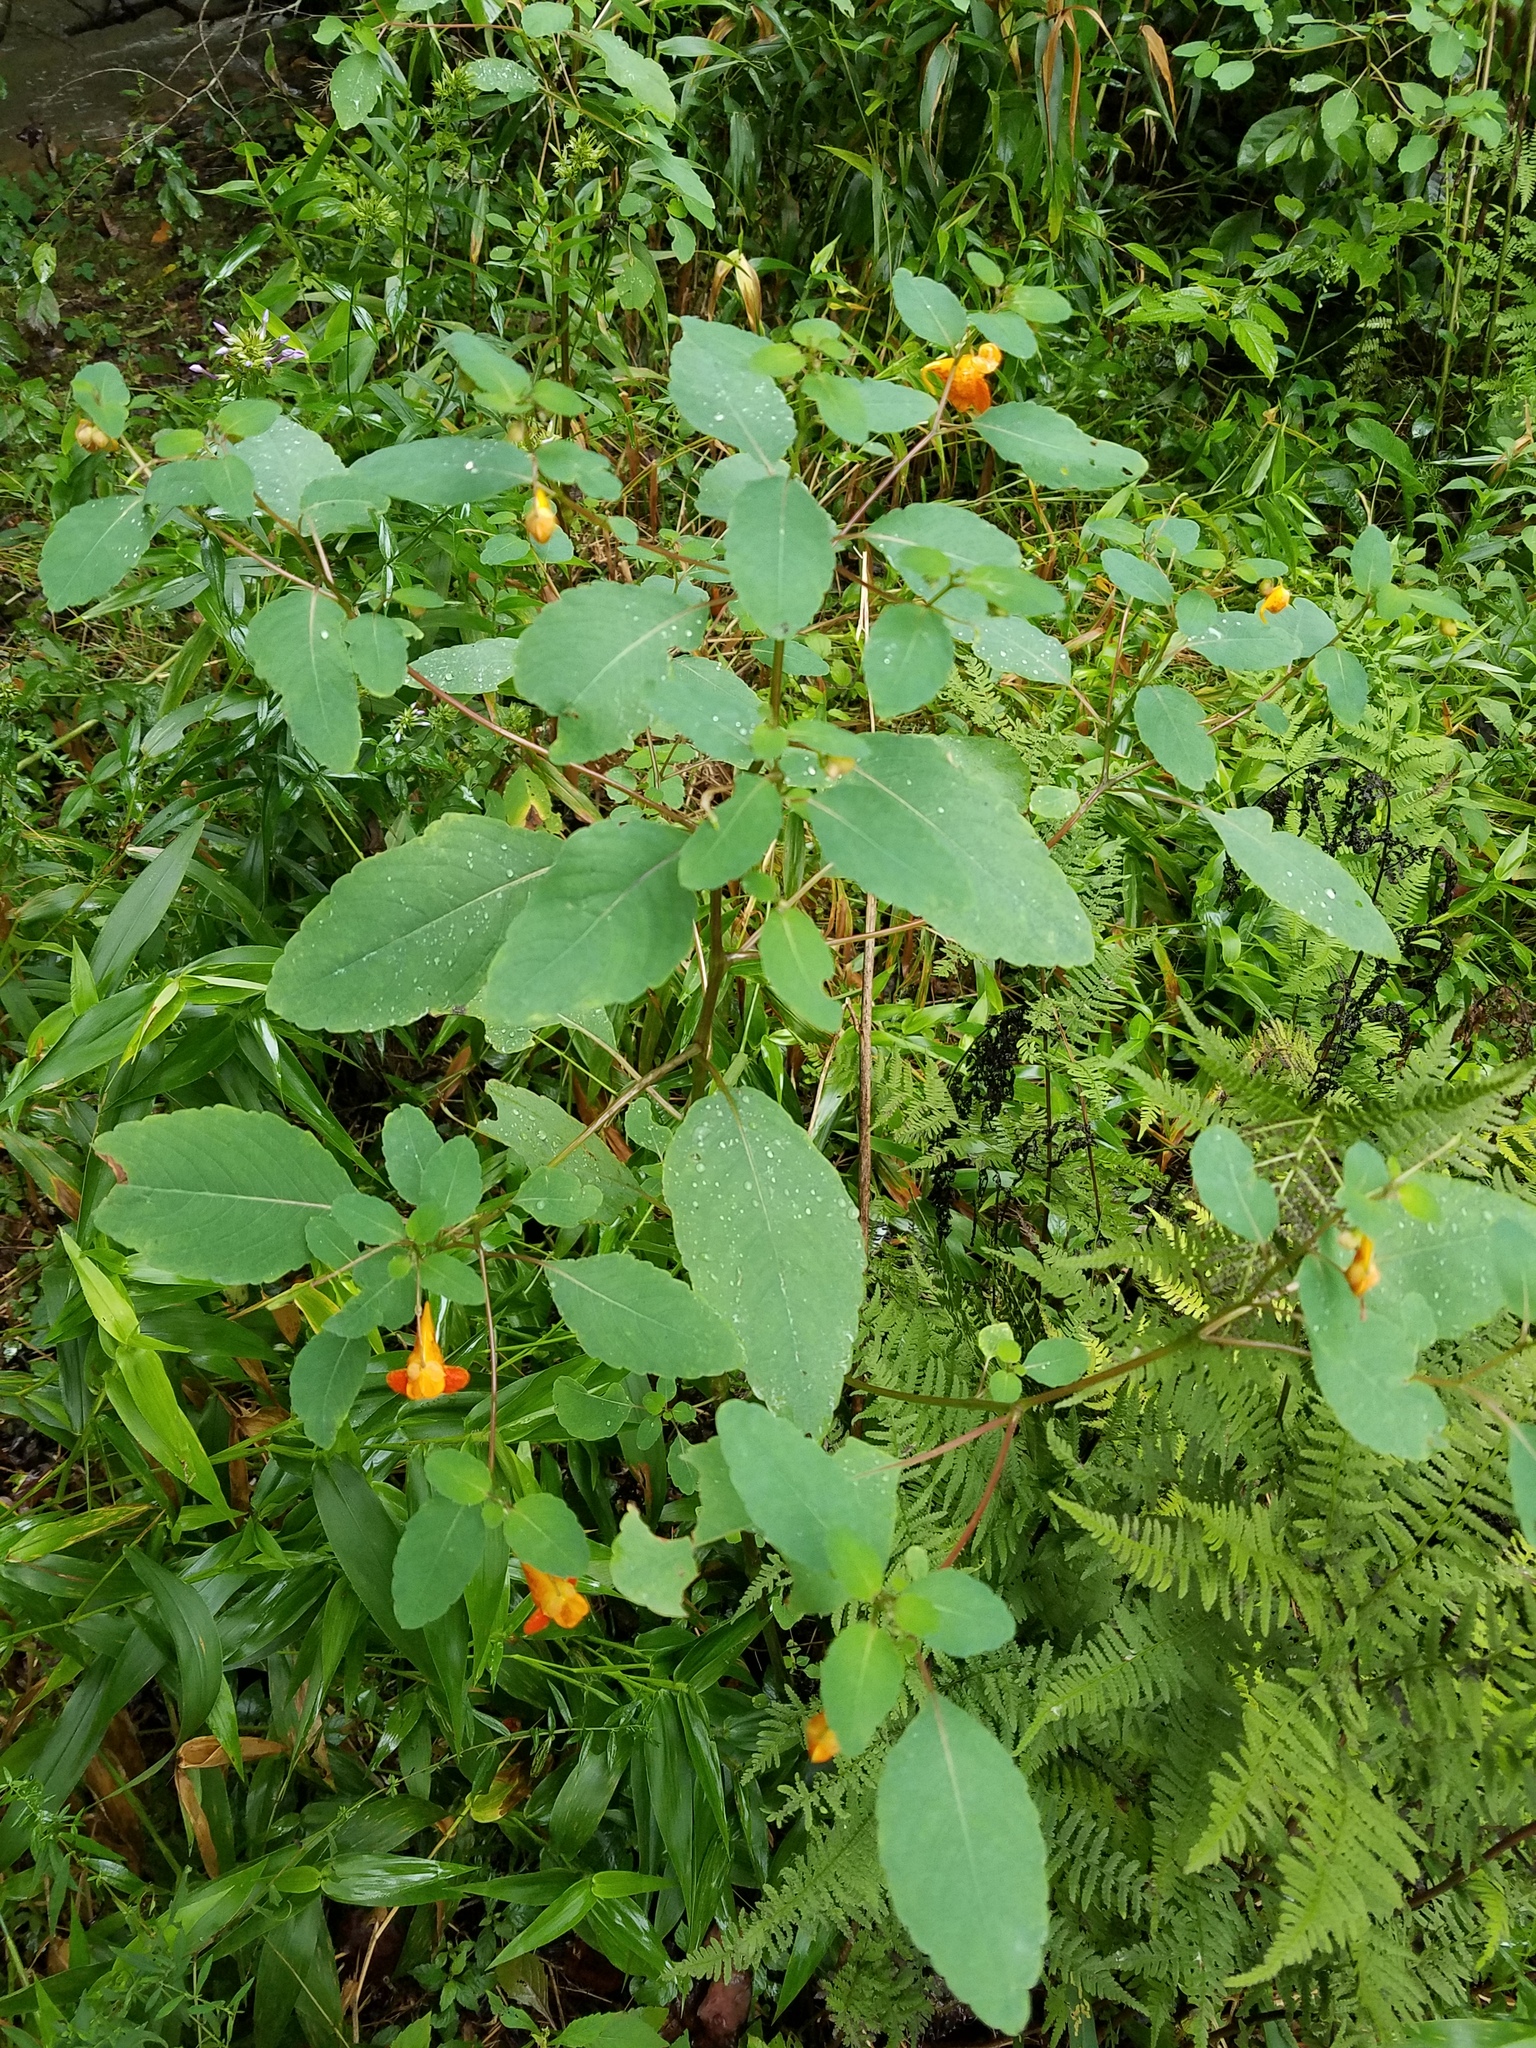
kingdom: Plantae
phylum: Tracheophyta
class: Magnoliopsida
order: Ericales
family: Balsaminaceae
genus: Impatiens
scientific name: Impatiens capensis
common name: Orange balsam
